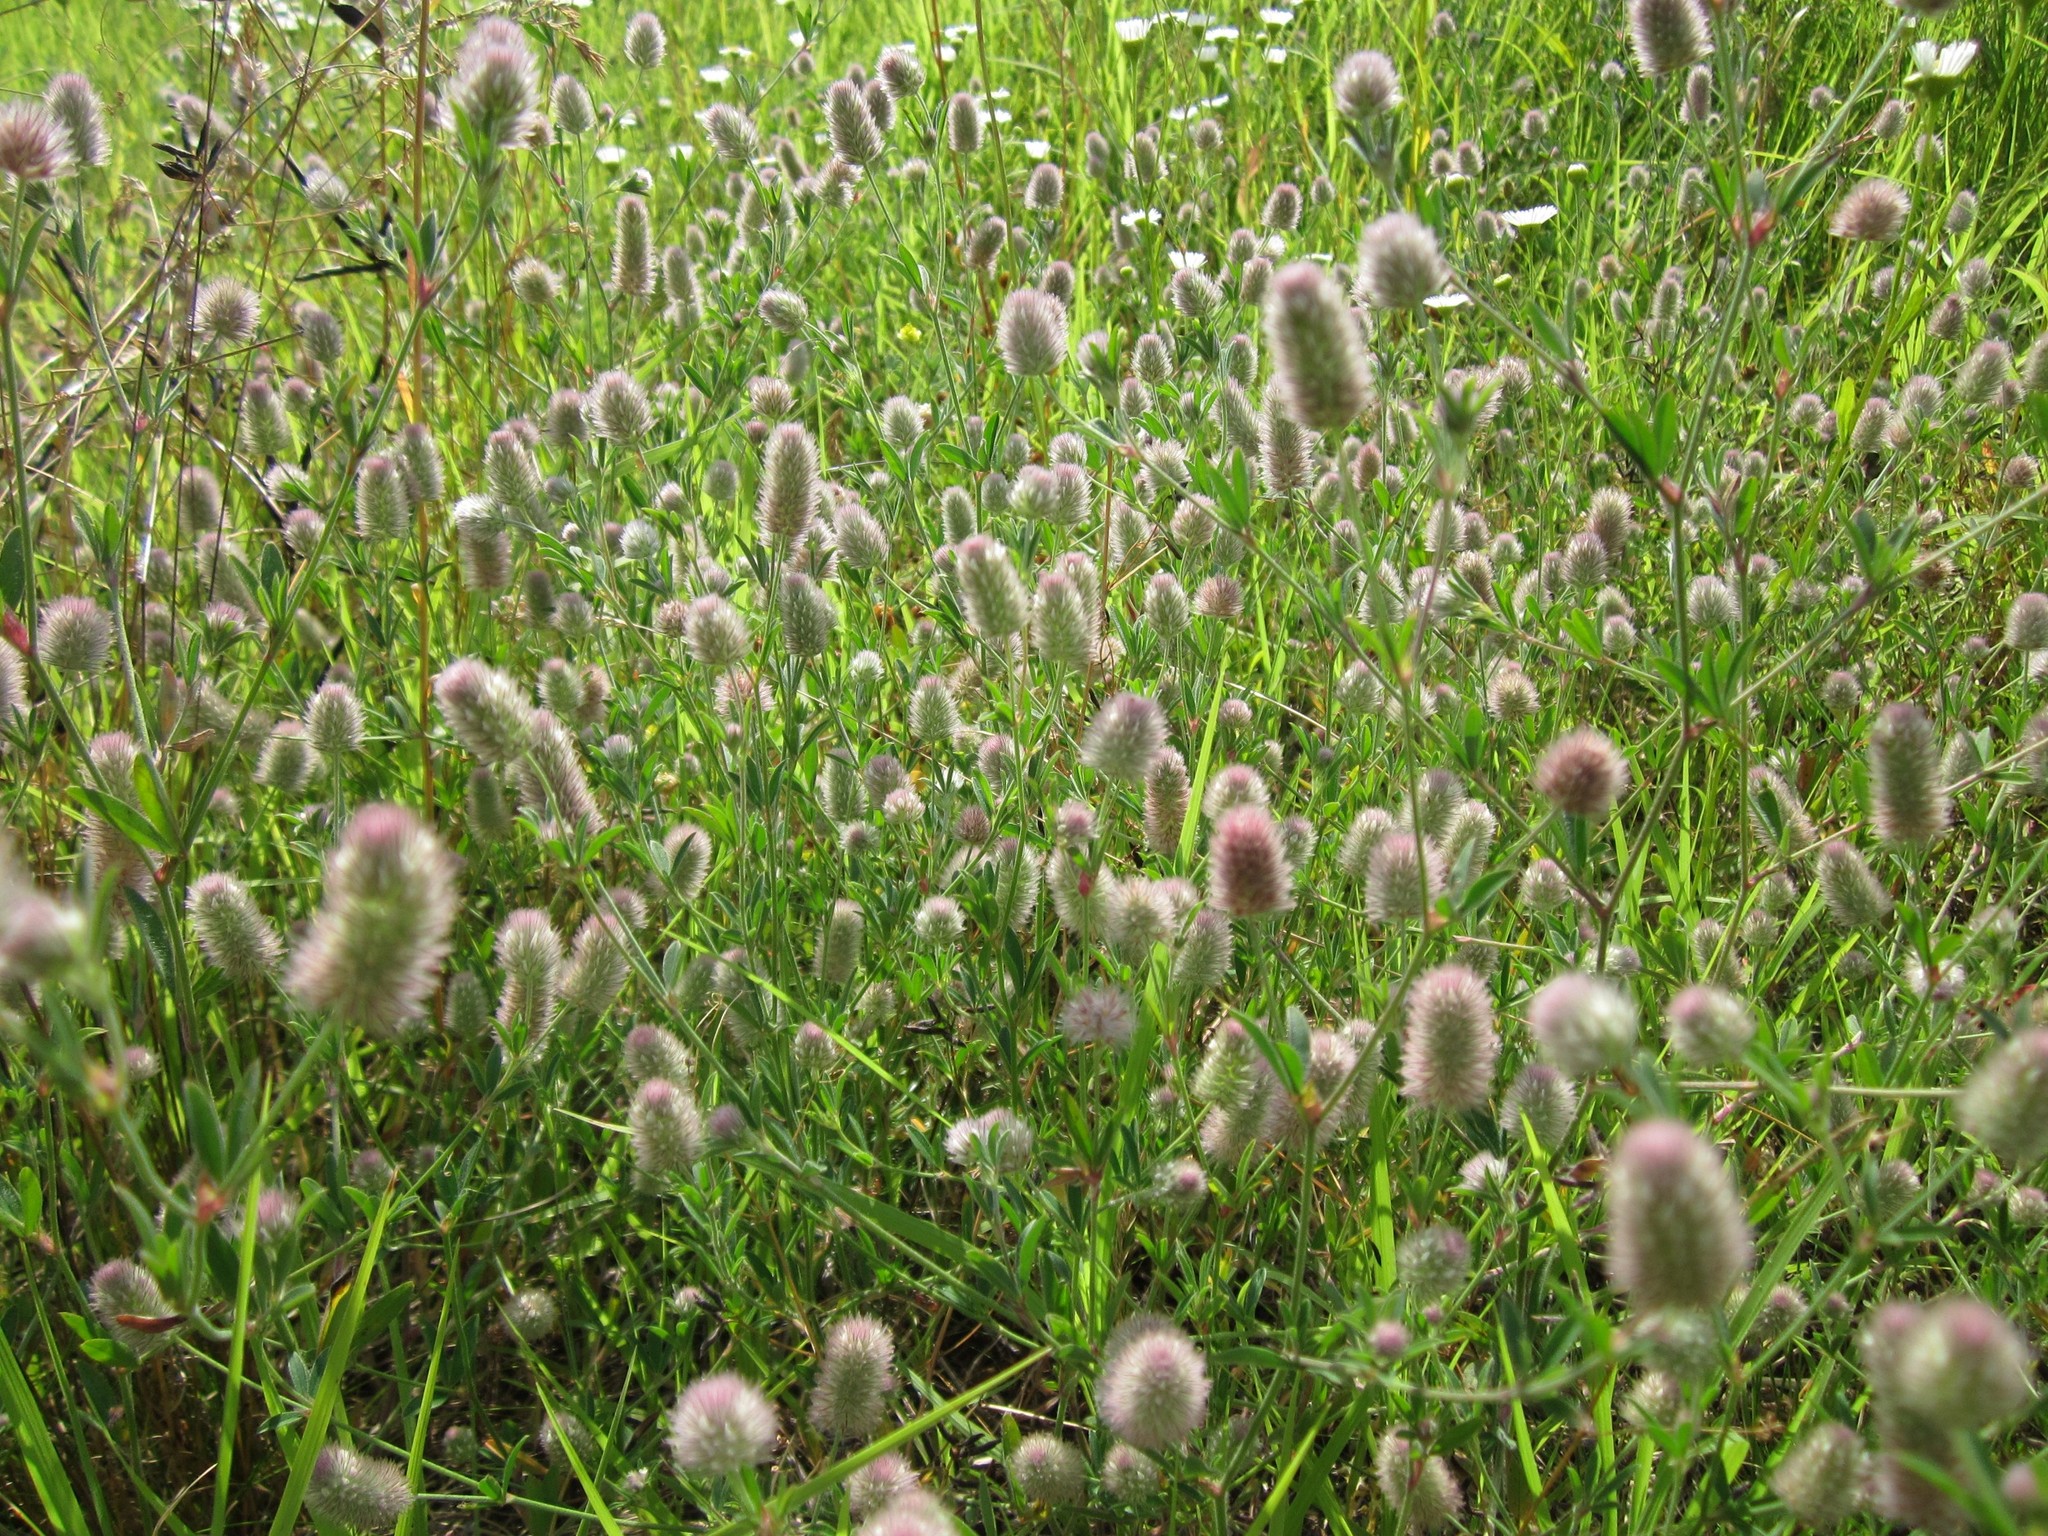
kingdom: Plantae
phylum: Tracheophyta
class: Magnoliopsida
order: Fabales
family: Fabaceae
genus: Trifolium
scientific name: Trifolium arvense
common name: Hare's-foot clover
